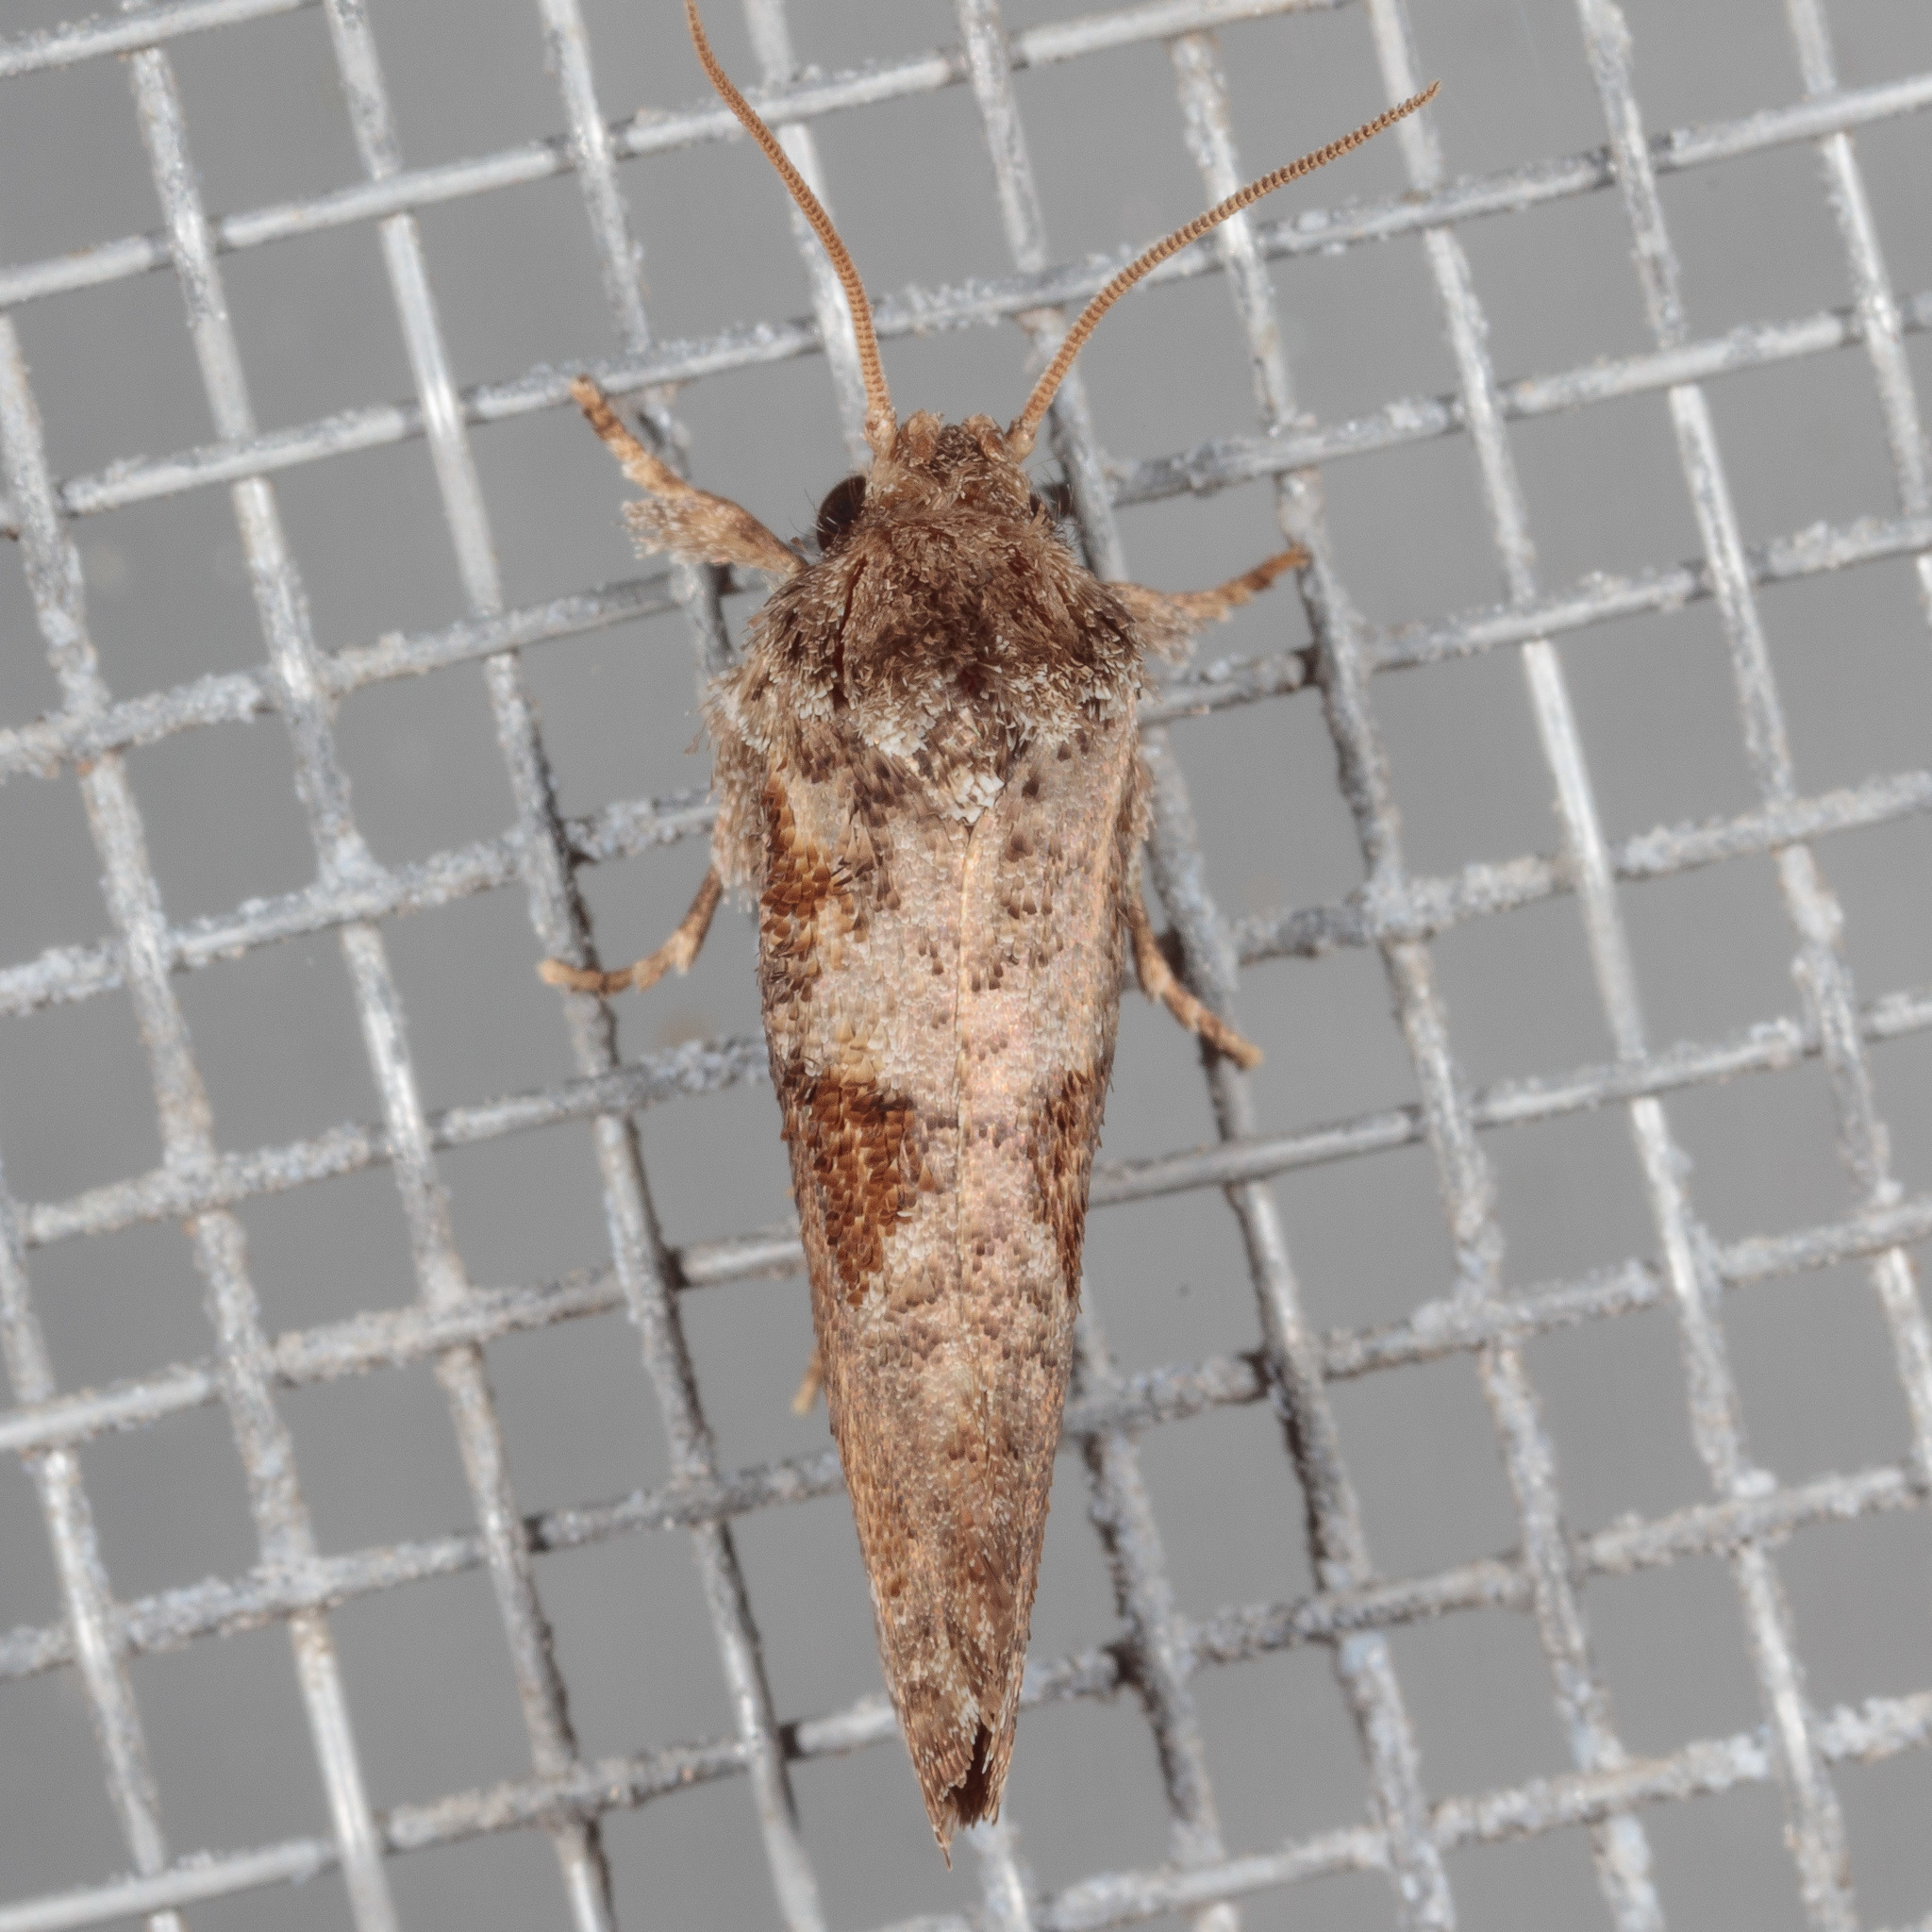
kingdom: Animalia
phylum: Arthropoda
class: Insecta
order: Lepidoptera
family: Tineidae
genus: Acrolophus
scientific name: Acrolophus piger
